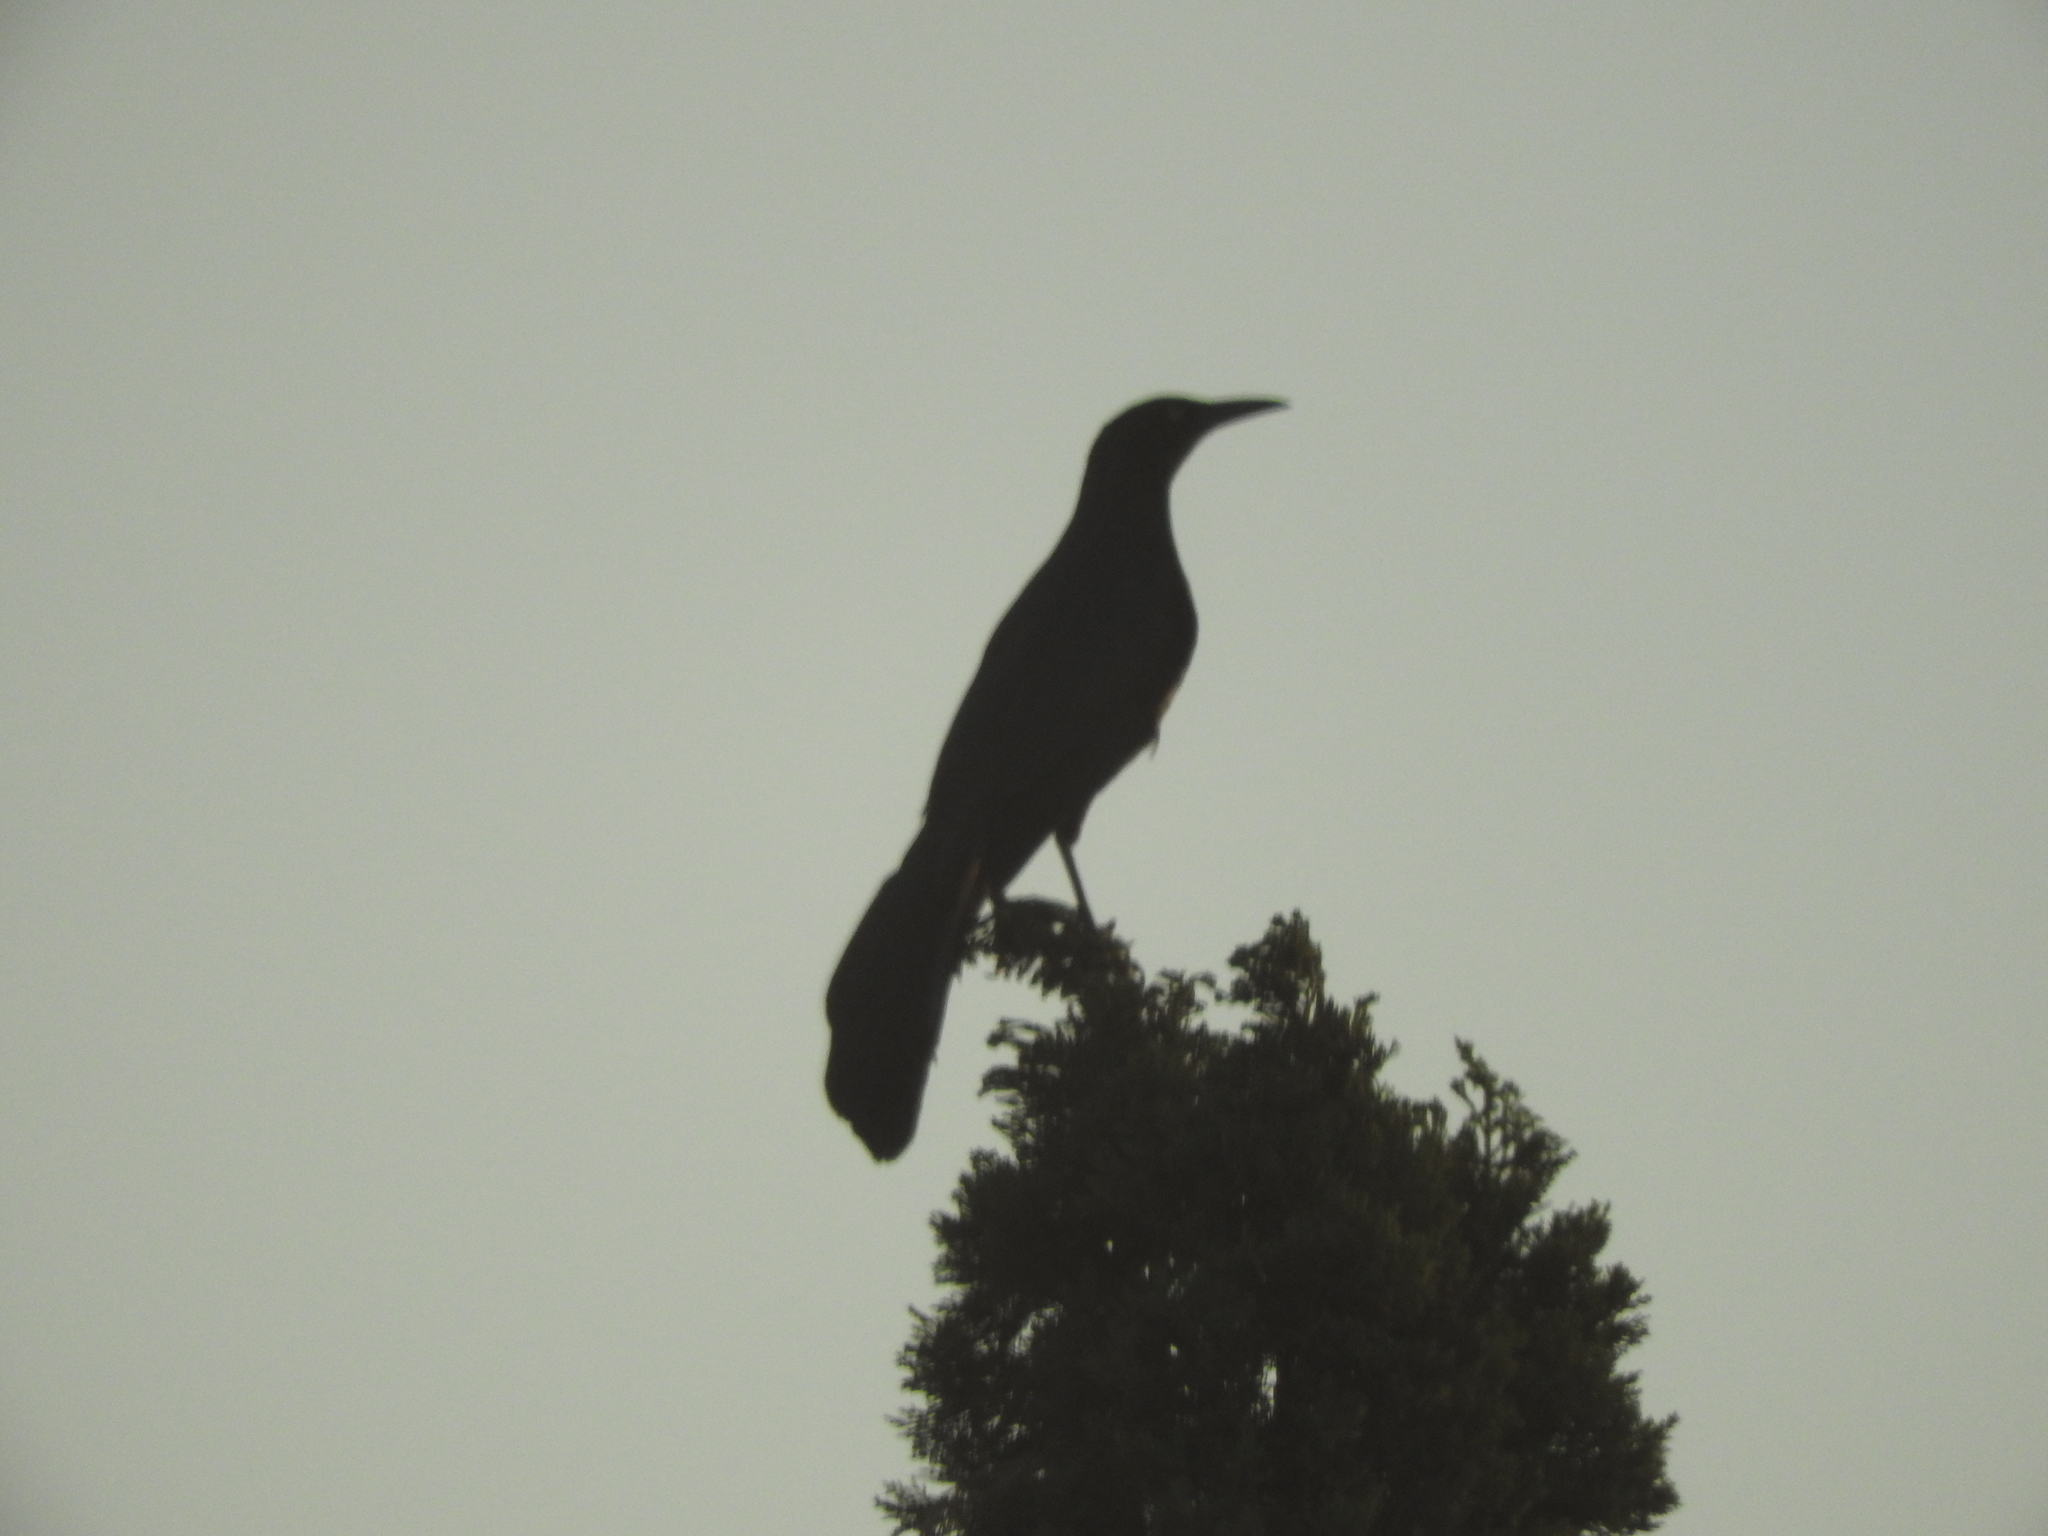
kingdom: Animalia
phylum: Chordata
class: Aves
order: Passeriformes
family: Icteridae
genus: Quiscalus
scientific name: Quiscalus mexicanus
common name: Great-tailed grackle
